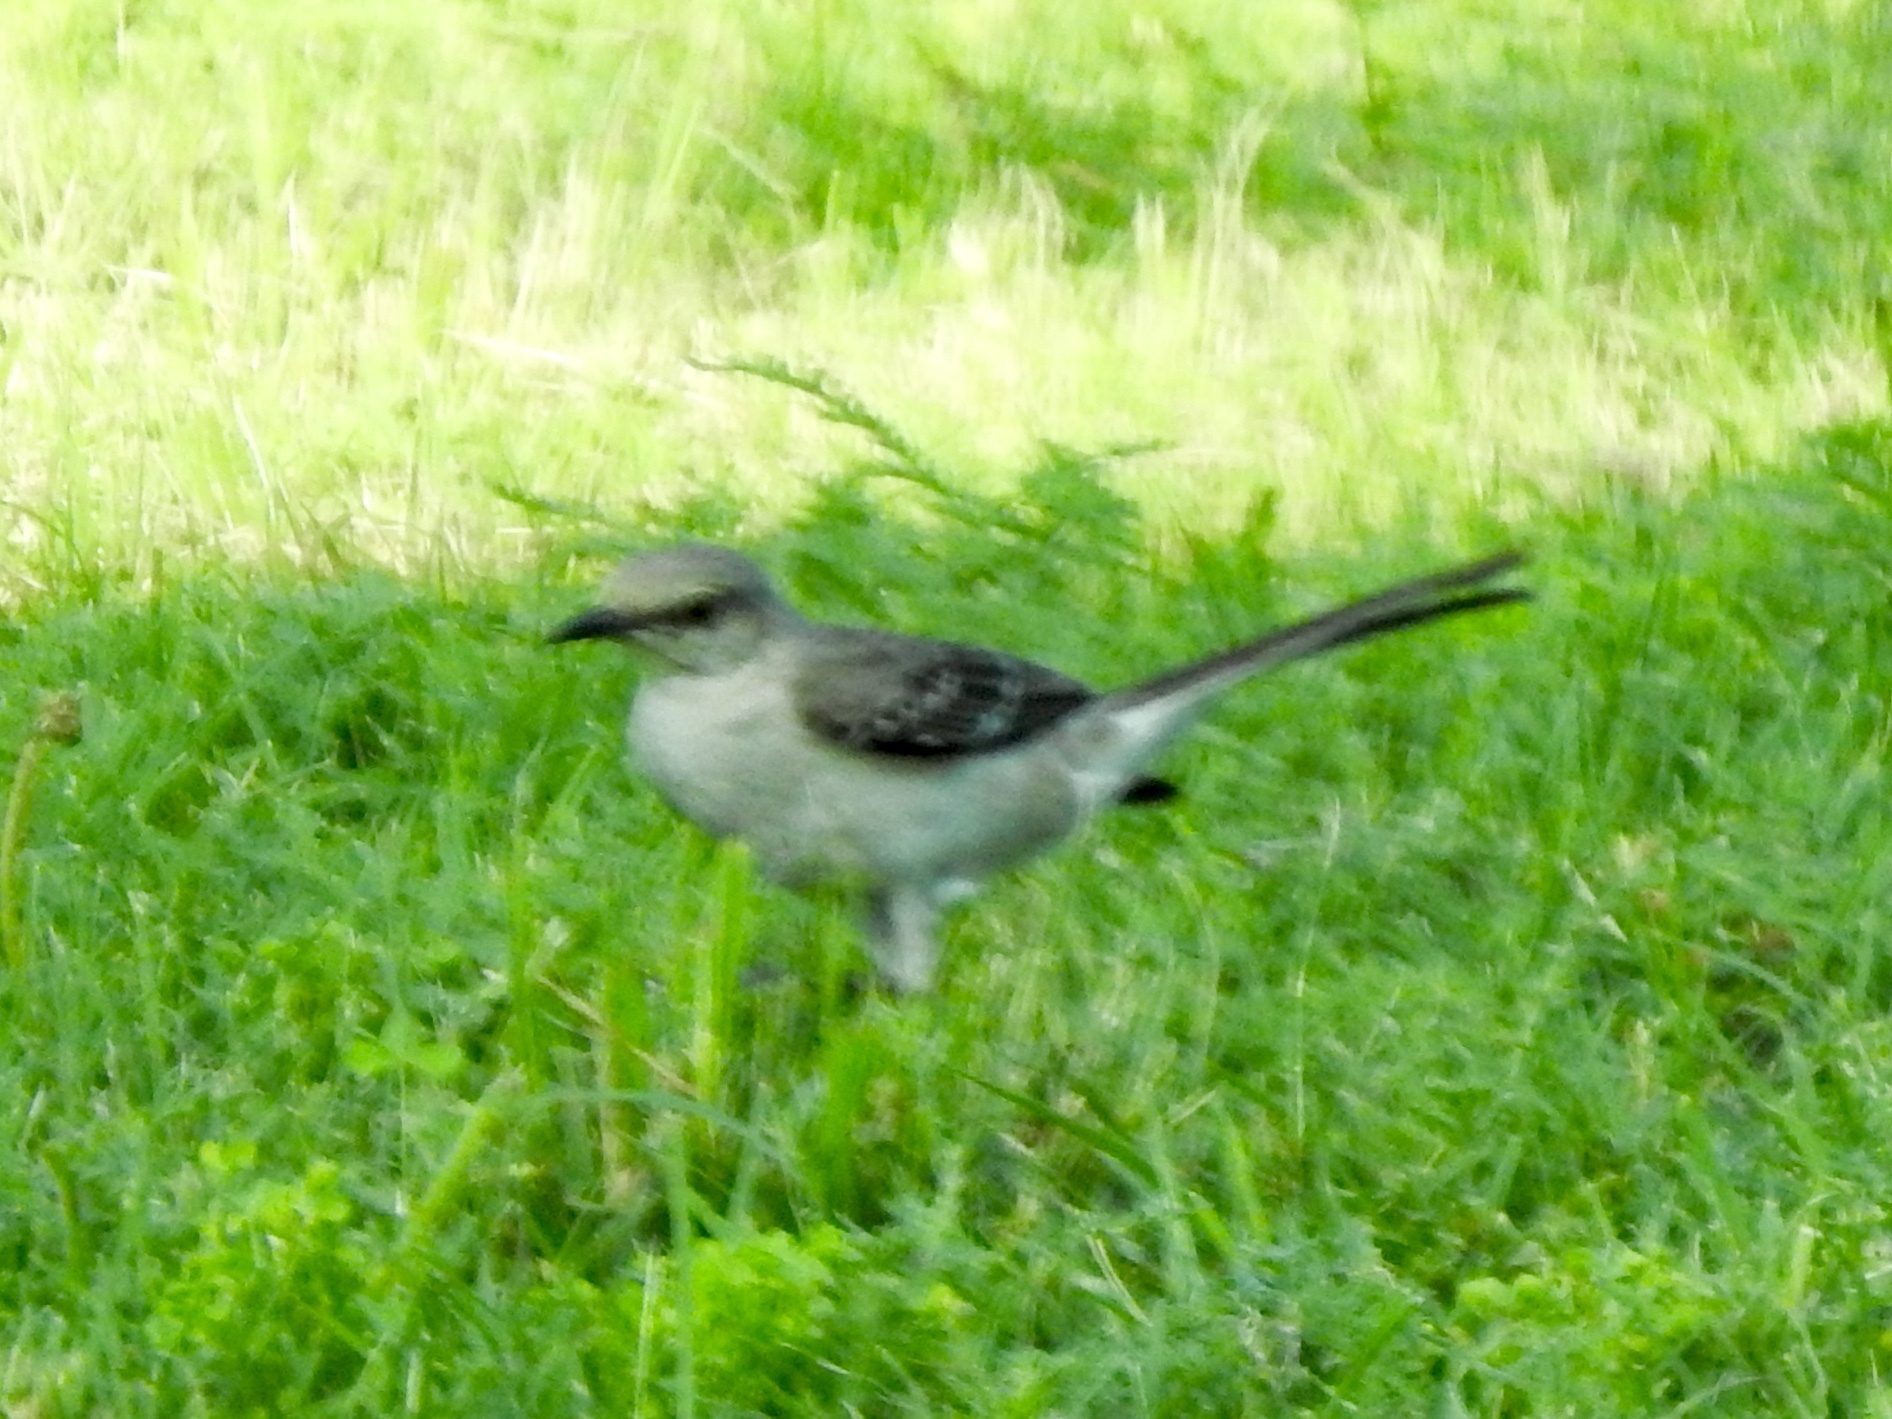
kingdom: Animalia
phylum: Chordata
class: Aves
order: Passeriformes
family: Mimidae
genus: Mimus
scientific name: Mimus polyglottos
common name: Northern mockingbird
